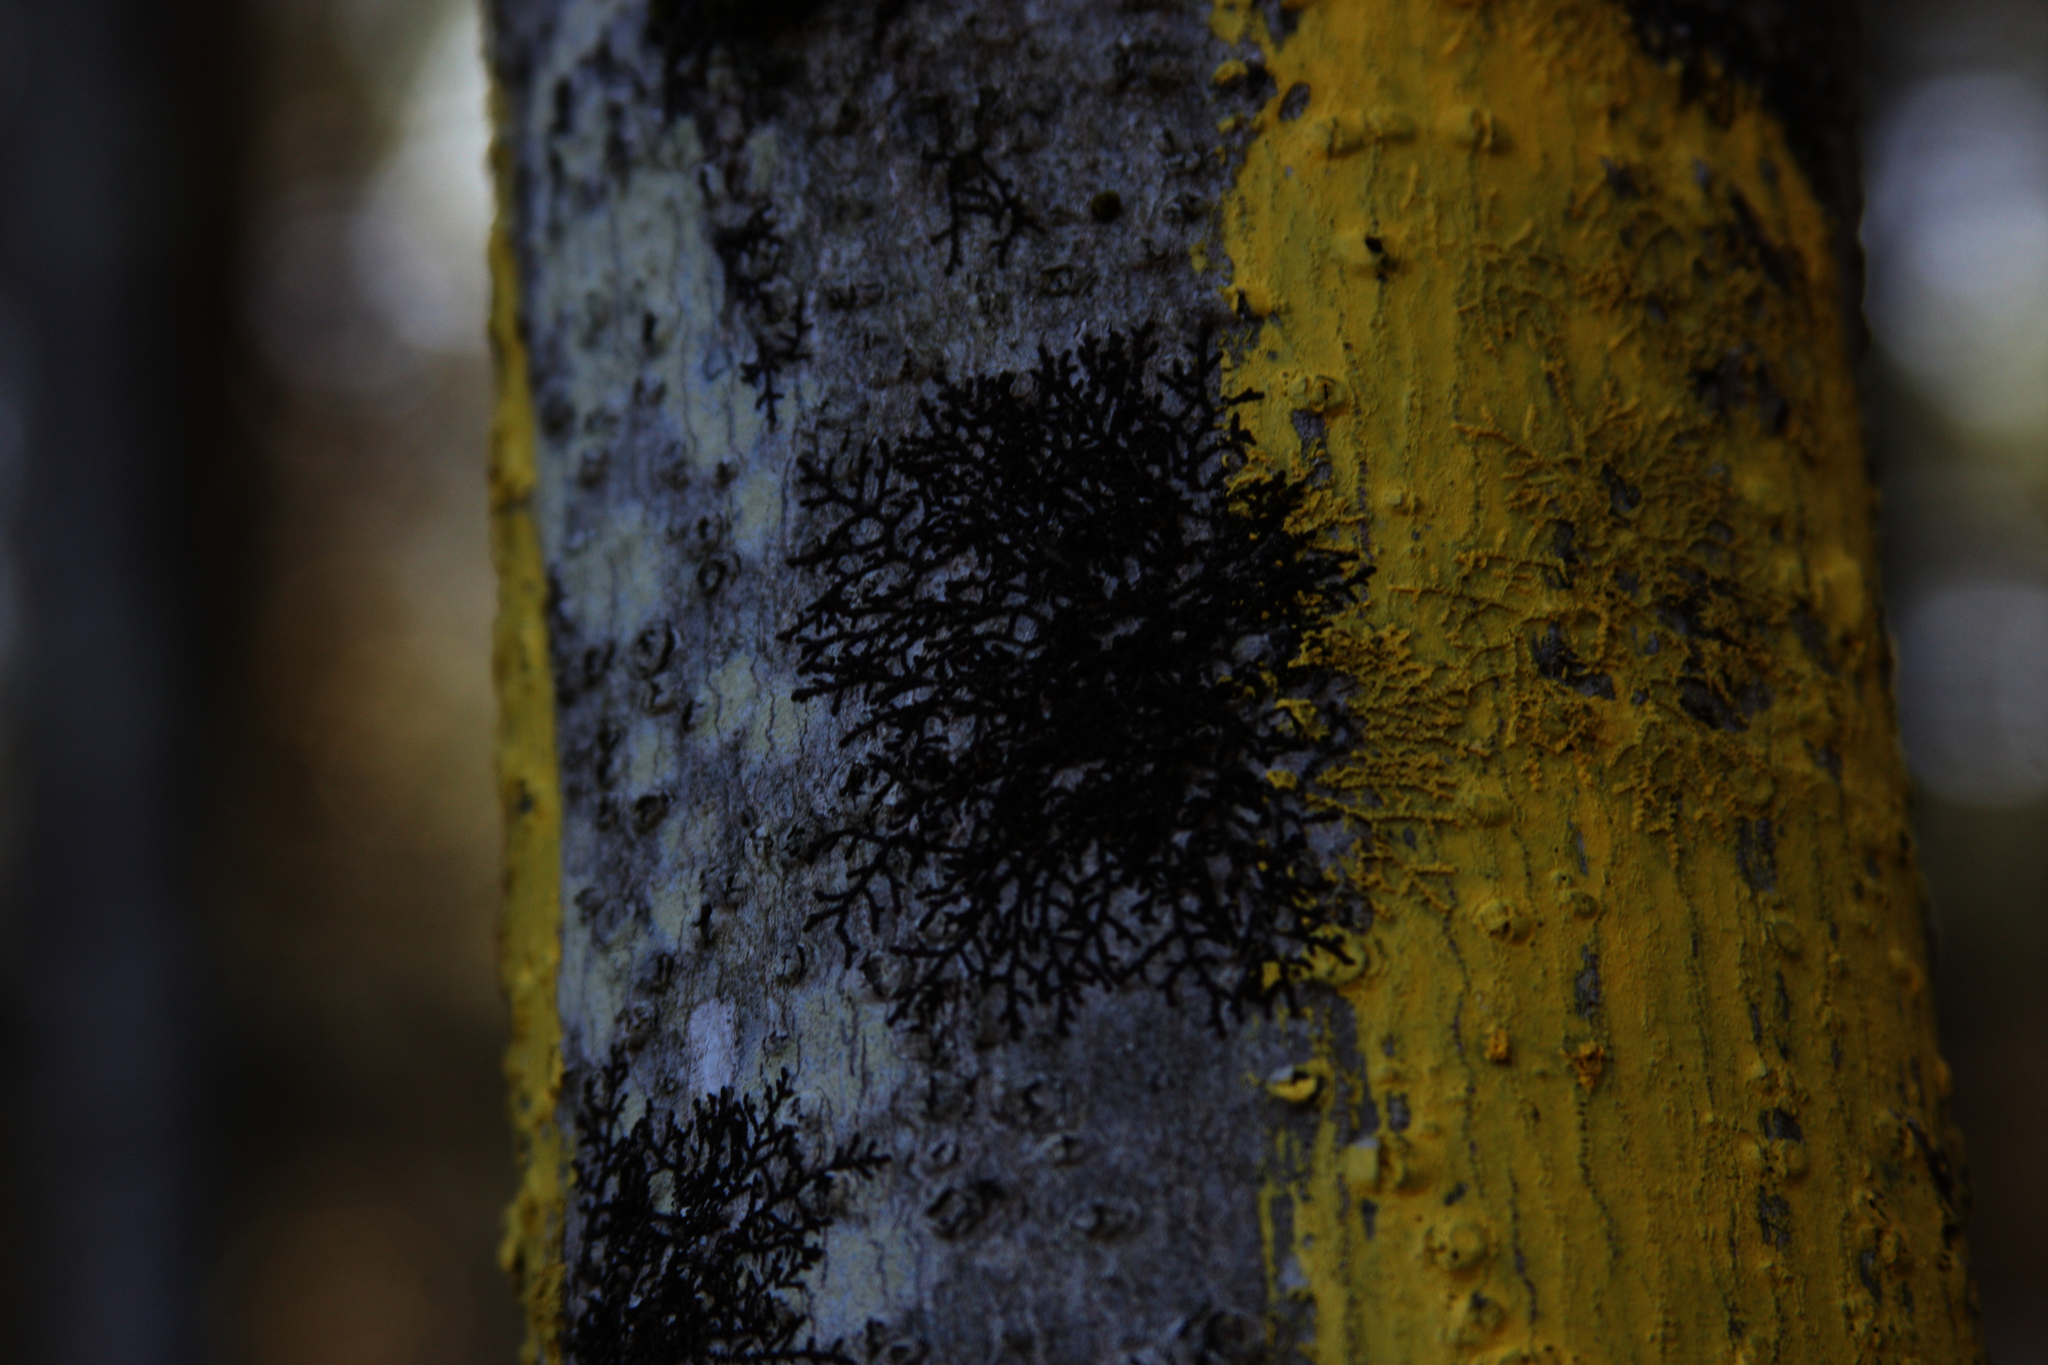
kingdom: Plantae
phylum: Marchantiophyta
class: Jungermanniopsida
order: Porellales
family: Frullaniaceae
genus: Frullania
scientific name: Frullania eboracensis
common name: New york scalewort
